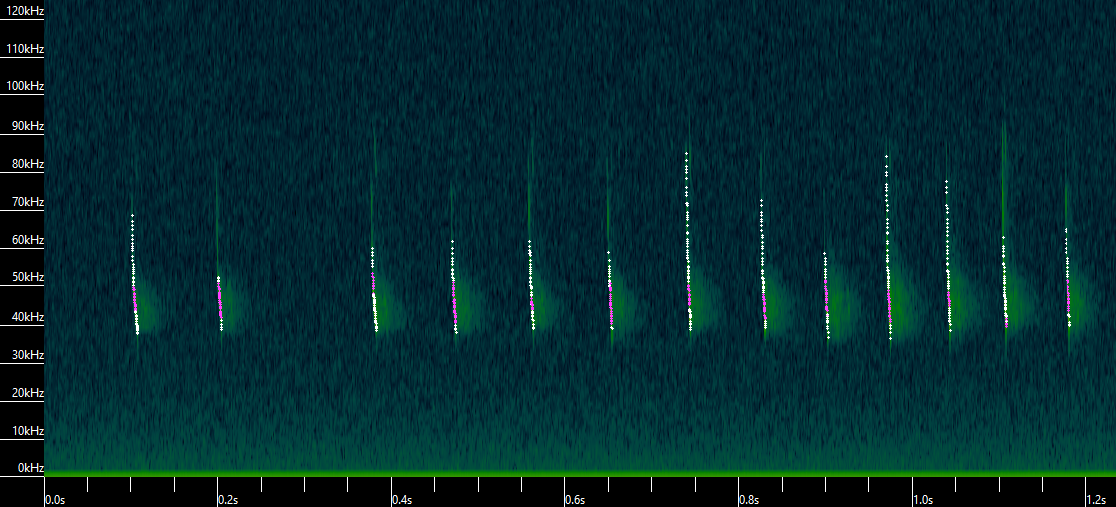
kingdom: Animalia
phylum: Chordata
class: Mammalia
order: Chiroptera
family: Vespertilionidae
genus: Myotis
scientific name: Myotis lucifugus
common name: Little brown bat
